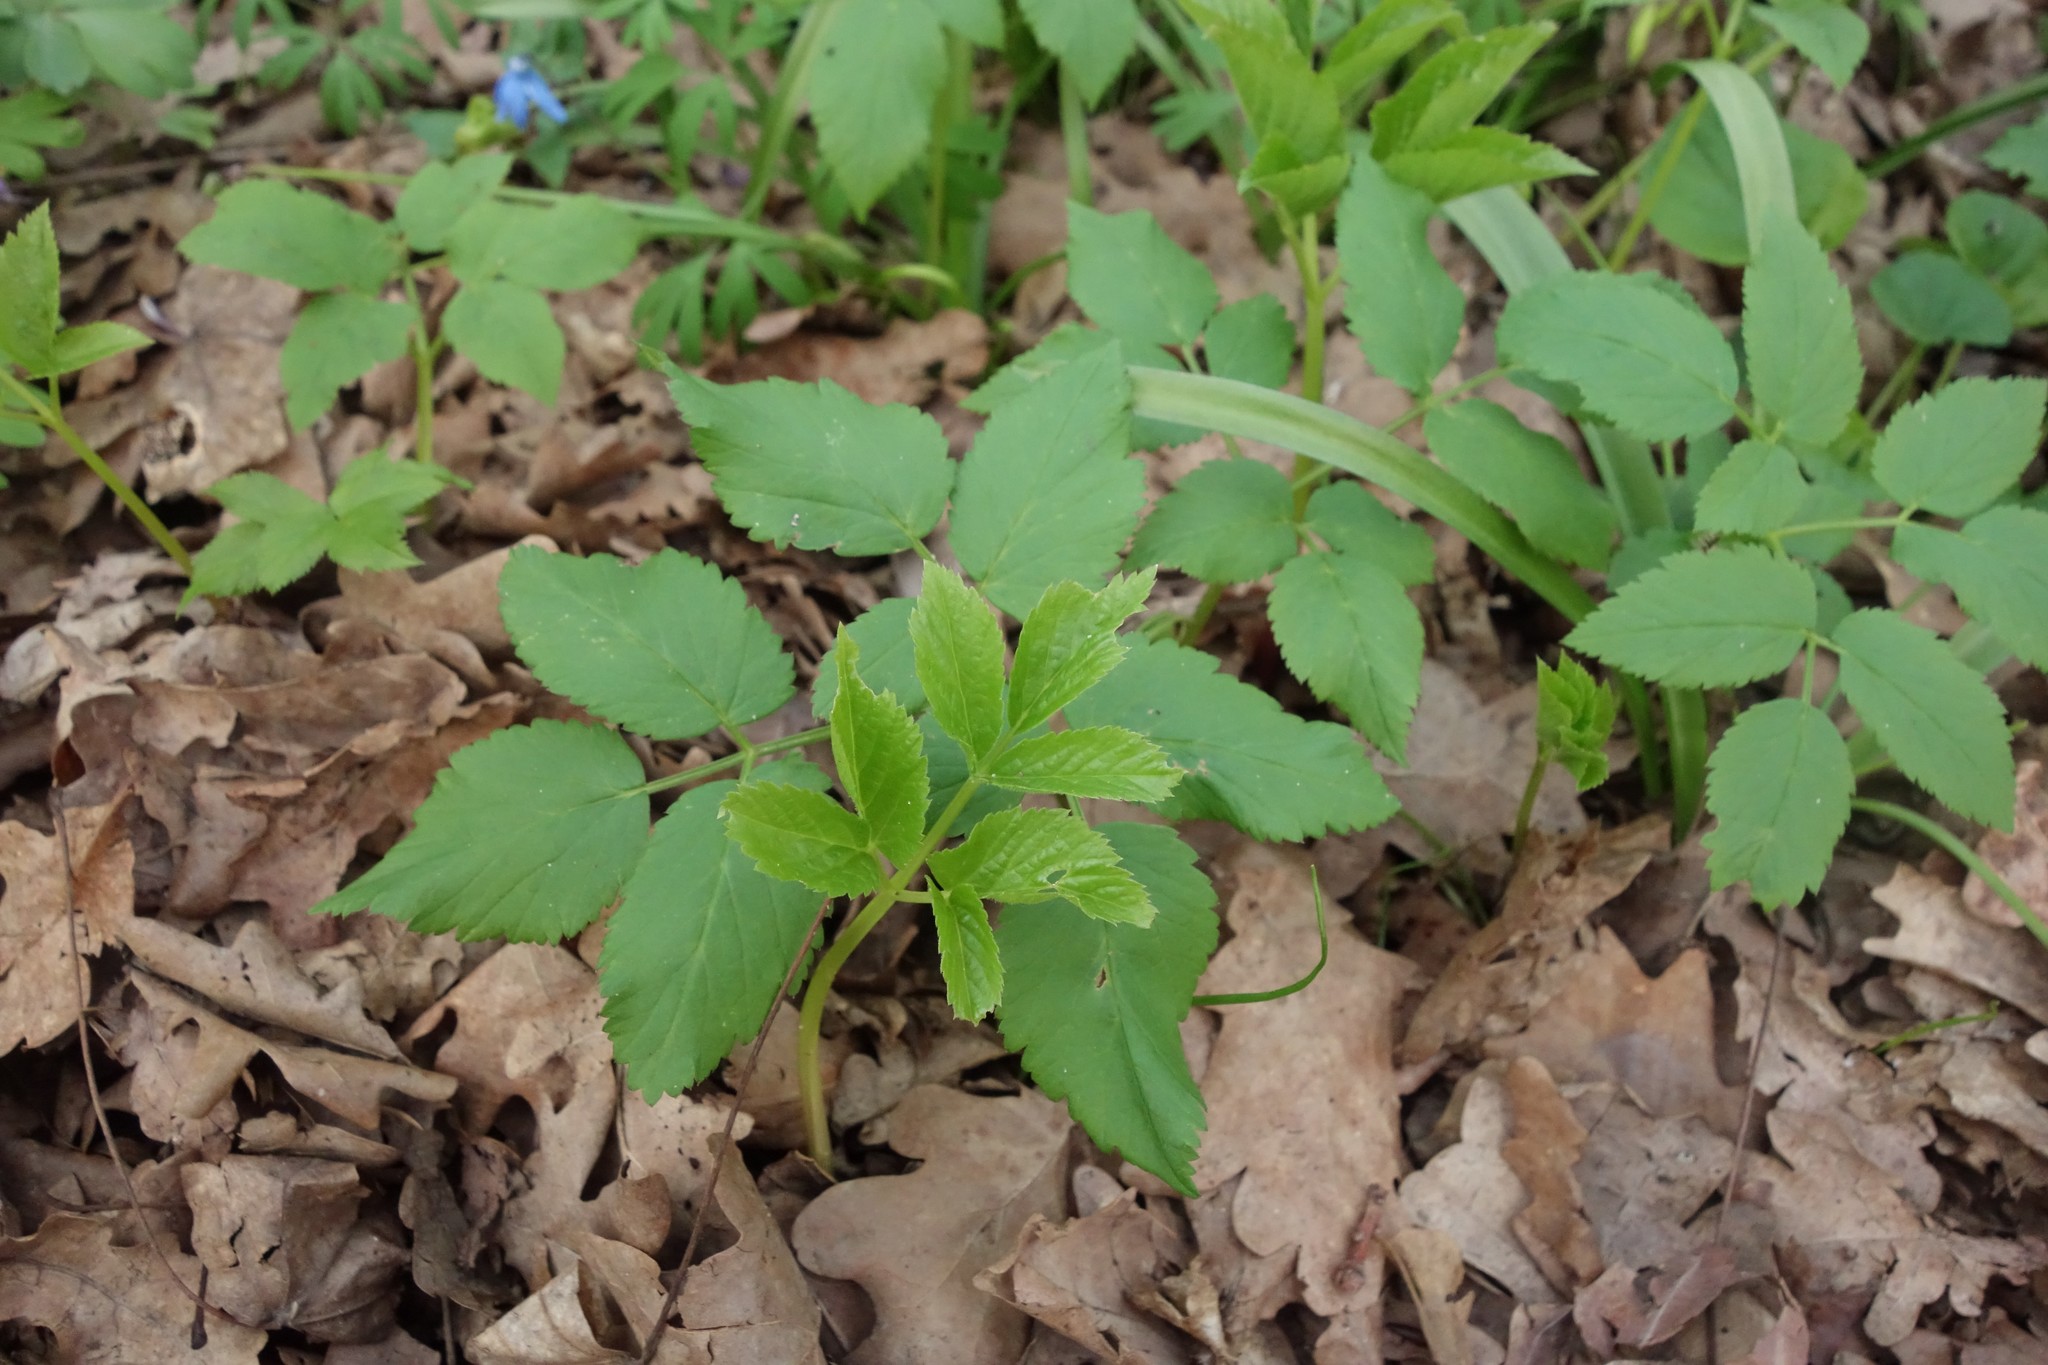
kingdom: Plantae
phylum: Tracheophyta
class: Magnoliopsida
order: Apiales
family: Apiaceae
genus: Aegopodium
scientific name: Aegopodium podagraria
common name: Ground-elder
